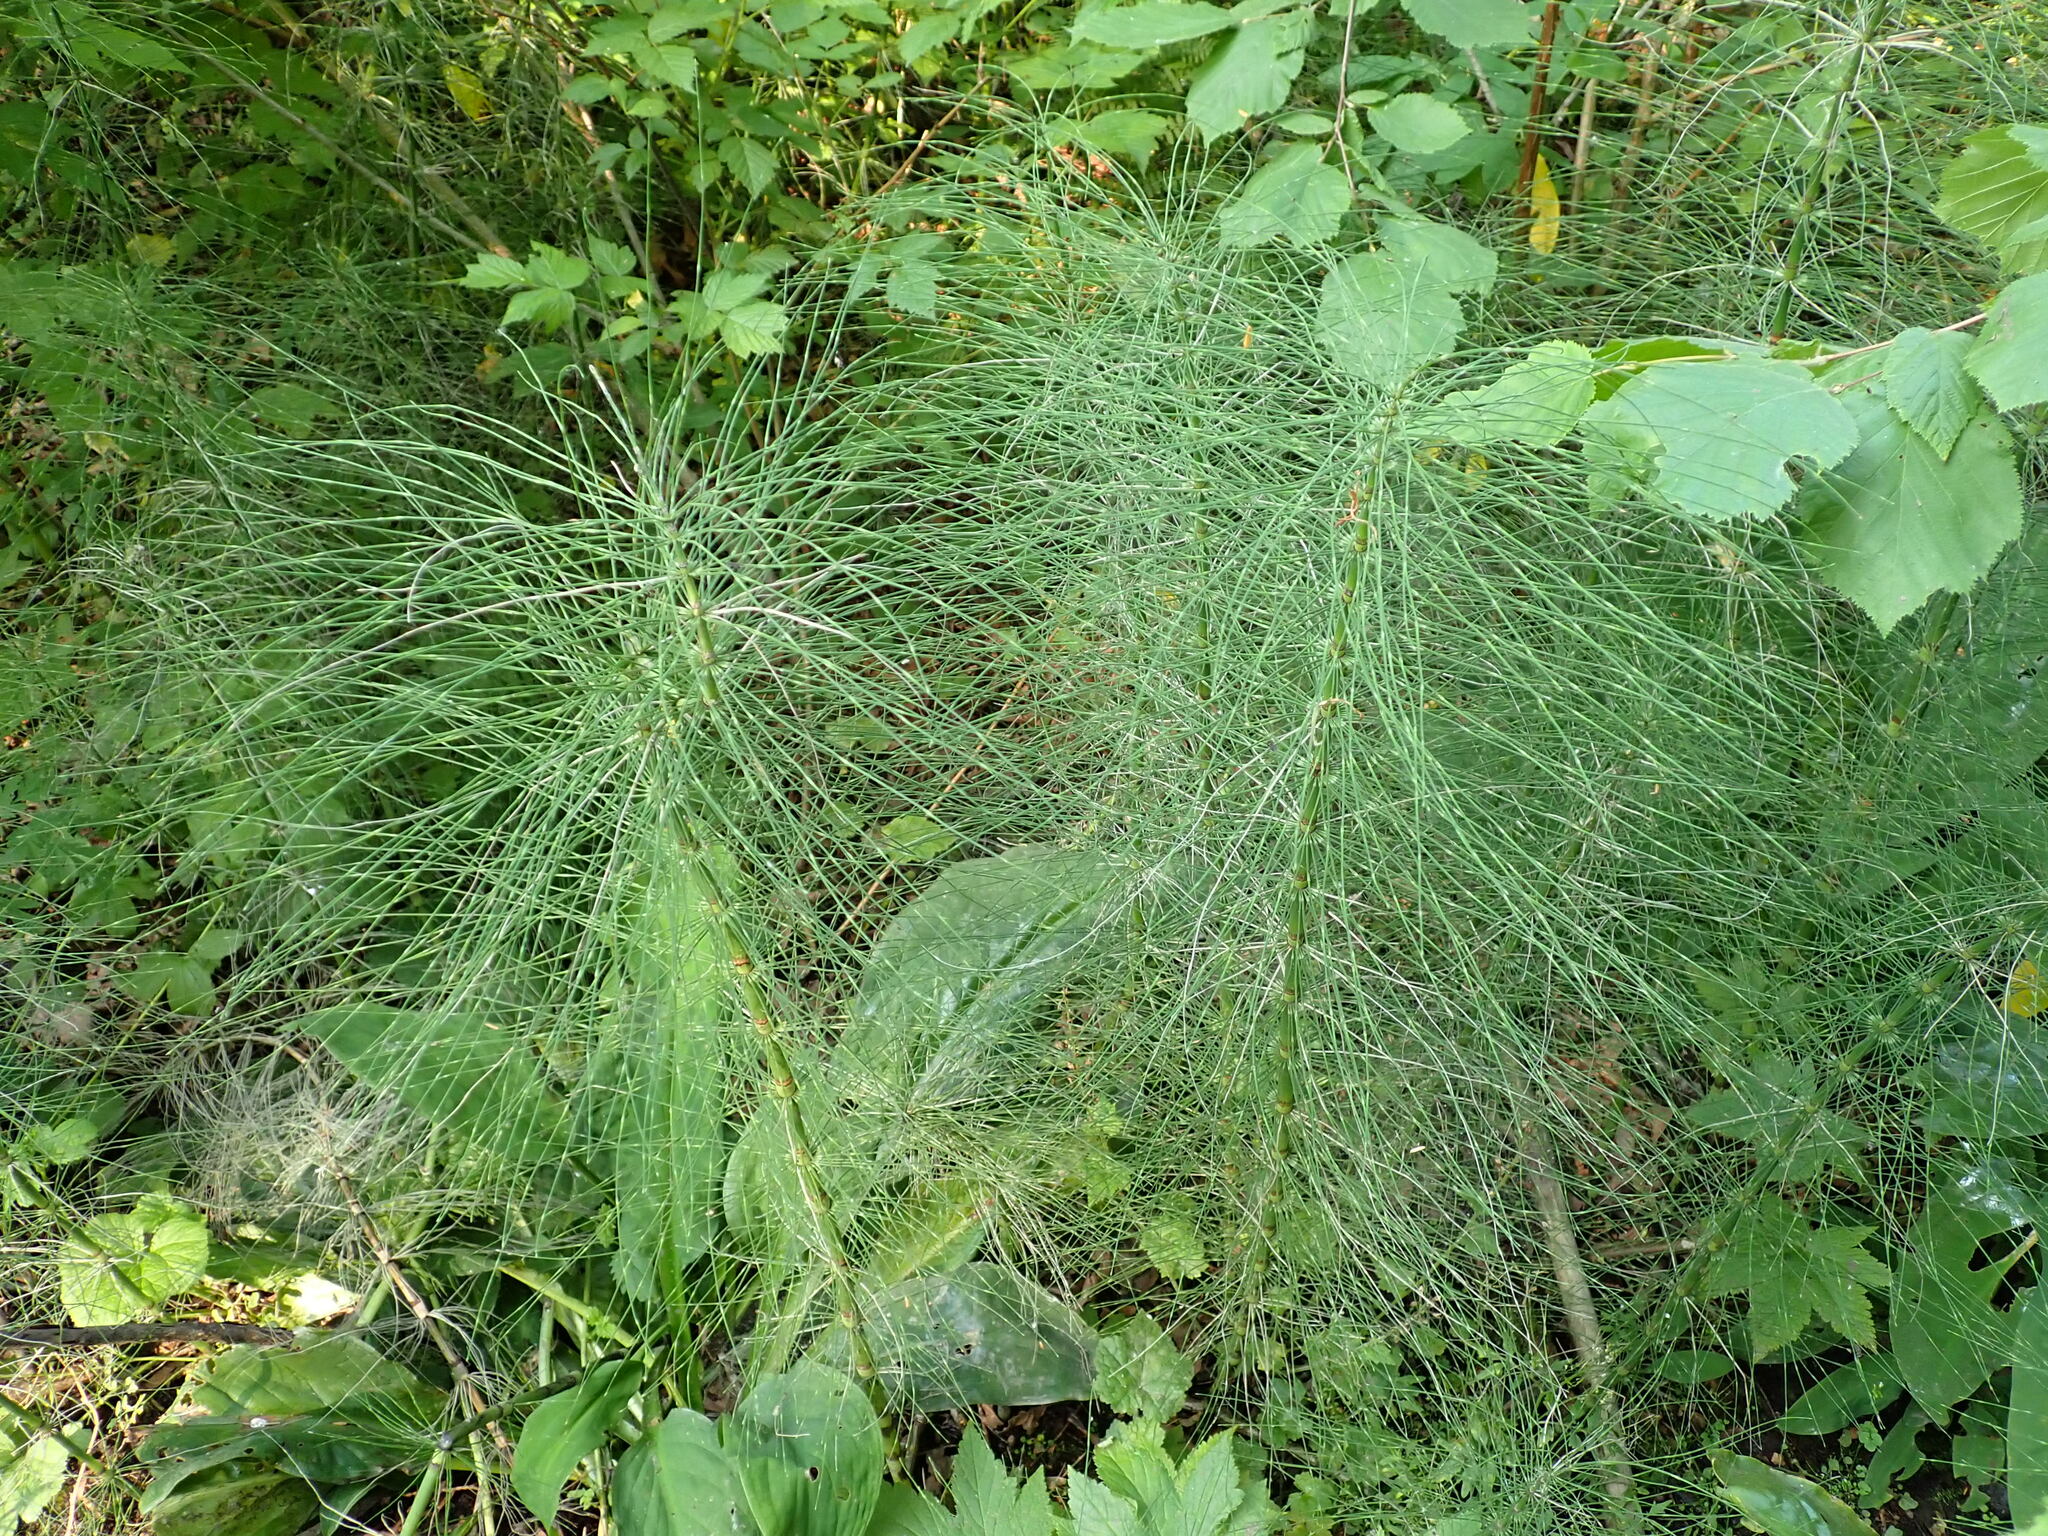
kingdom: Plantae
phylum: Tracheophyta
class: Polypodiopsida
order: Equisetales
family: Equisetaceae
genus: Equisetum
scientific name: Equisetum braunii
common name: Braun's horsetail
